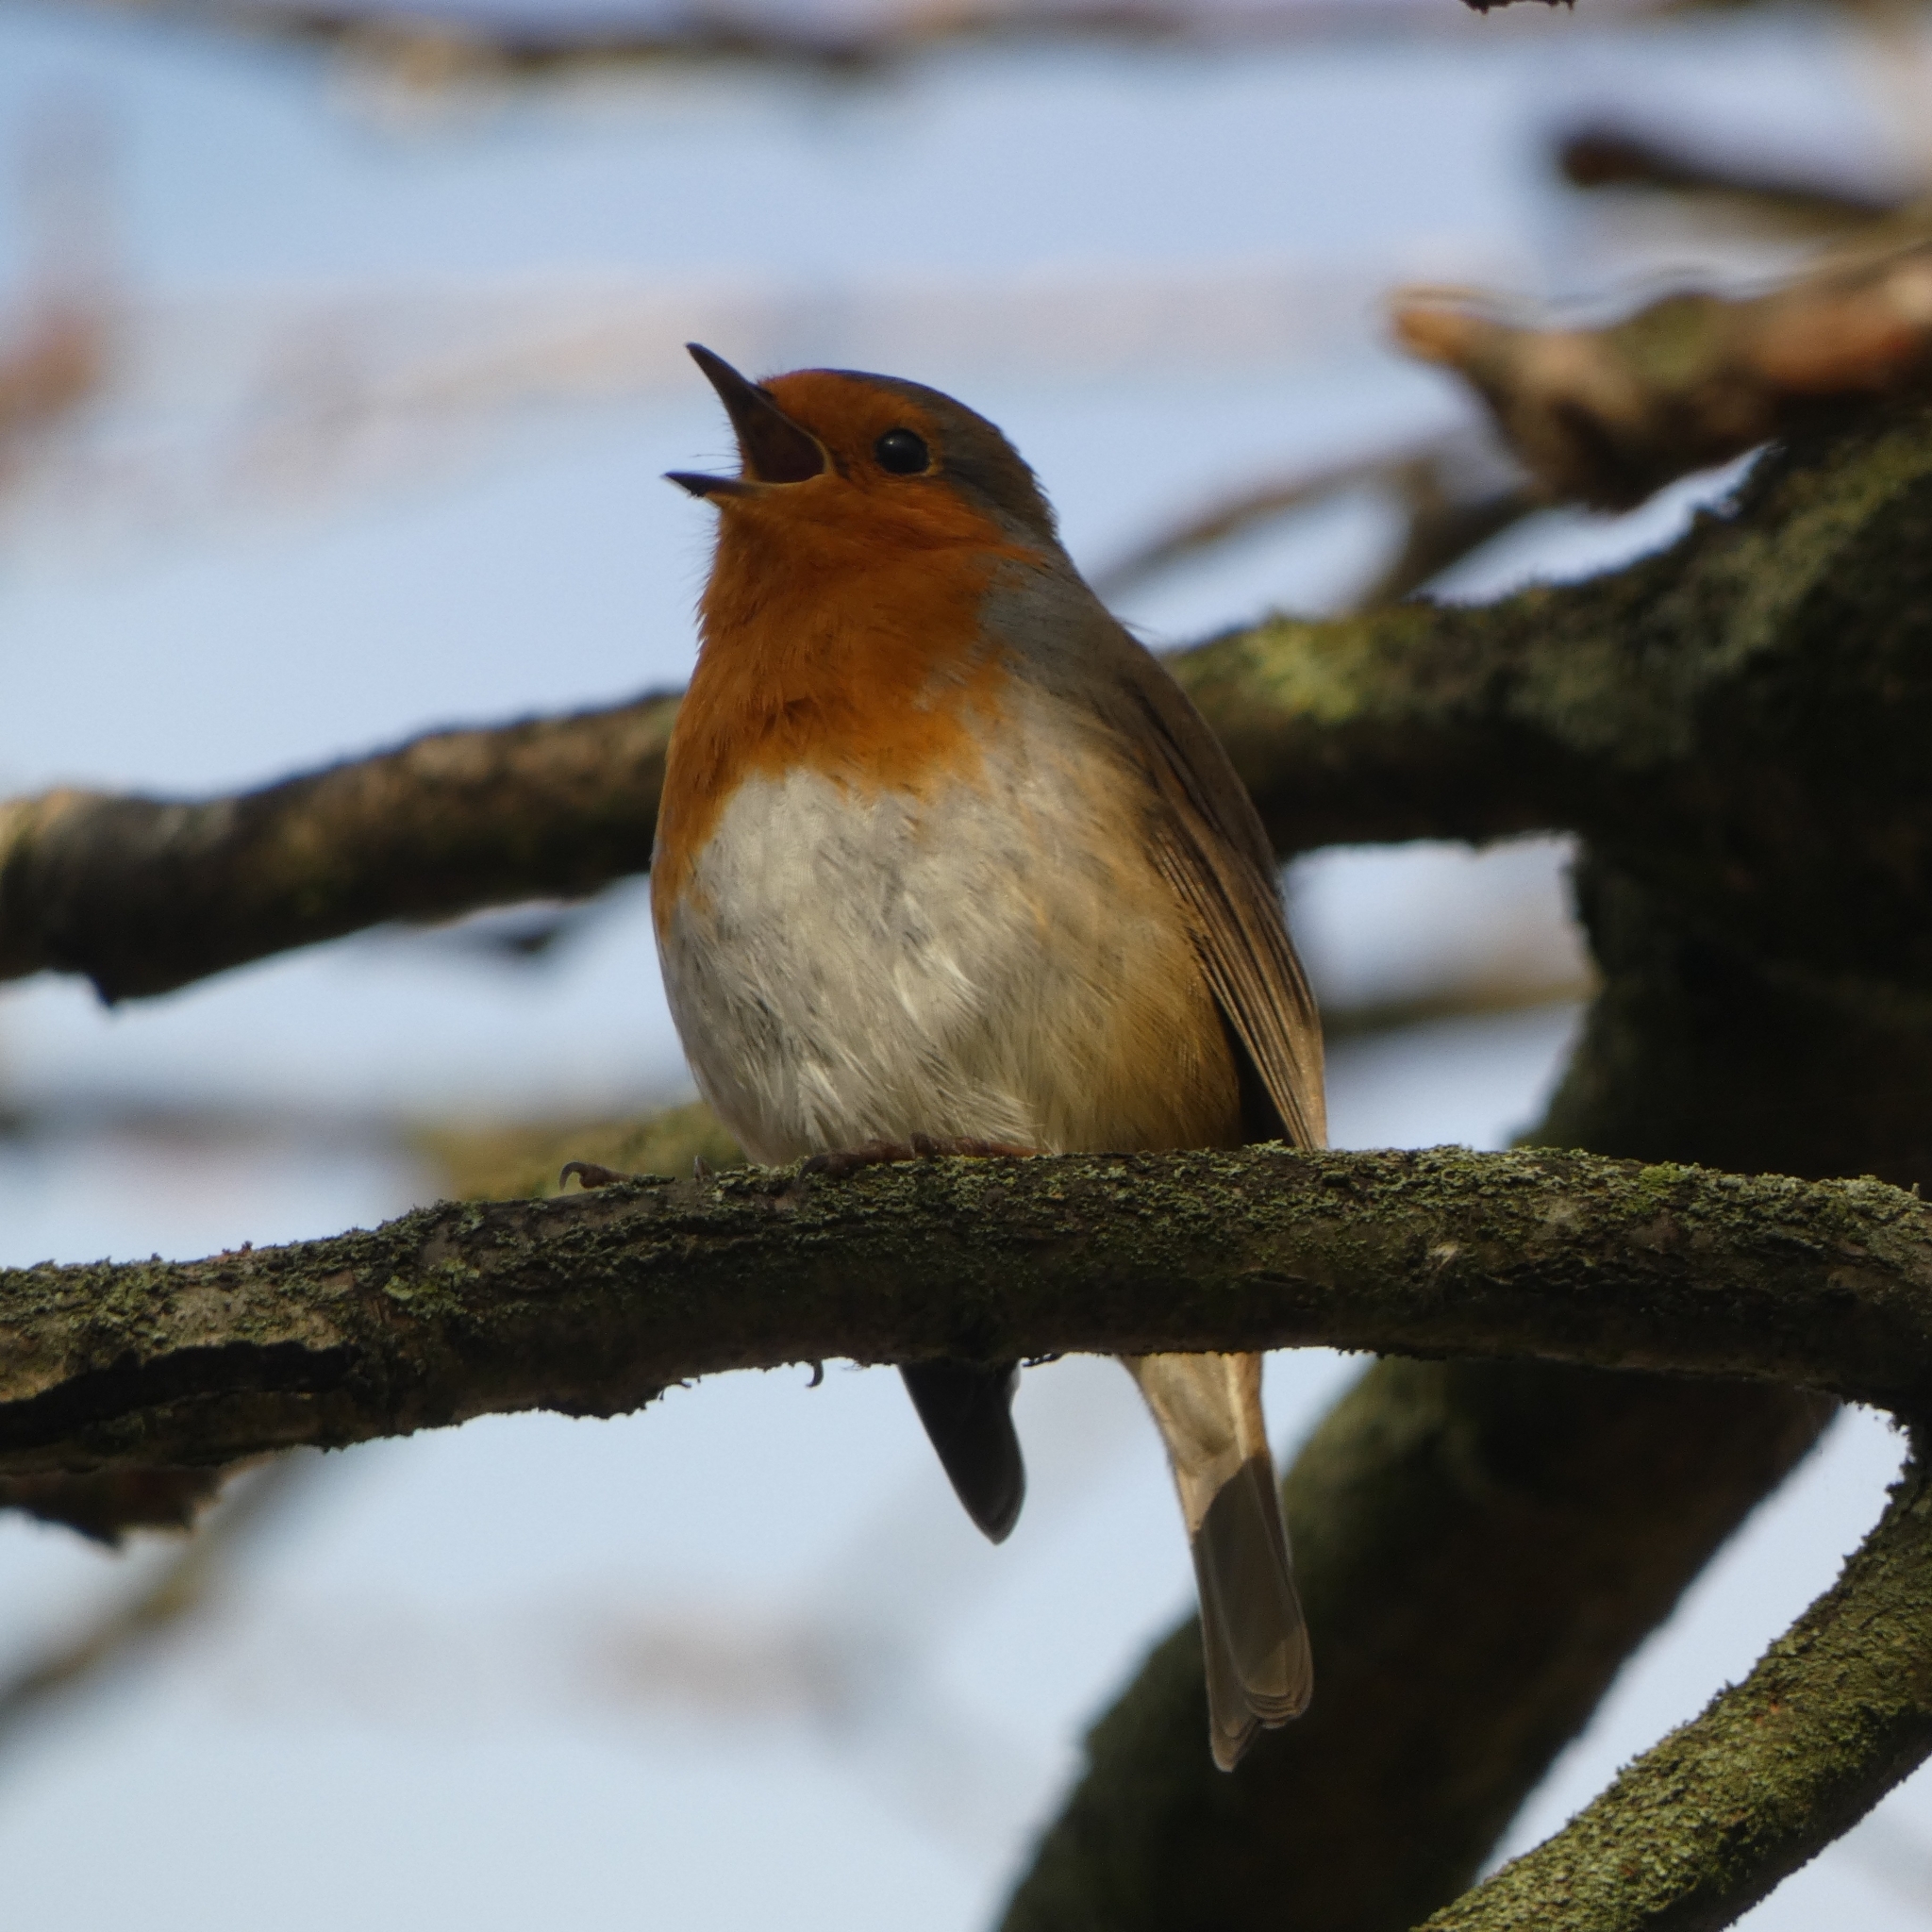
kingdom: Animalia
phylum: Chordata
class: Aves
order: Passeriformes
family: Muscicapidae
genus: Erithacus
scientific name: Erithacus rubecula
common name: European robin
